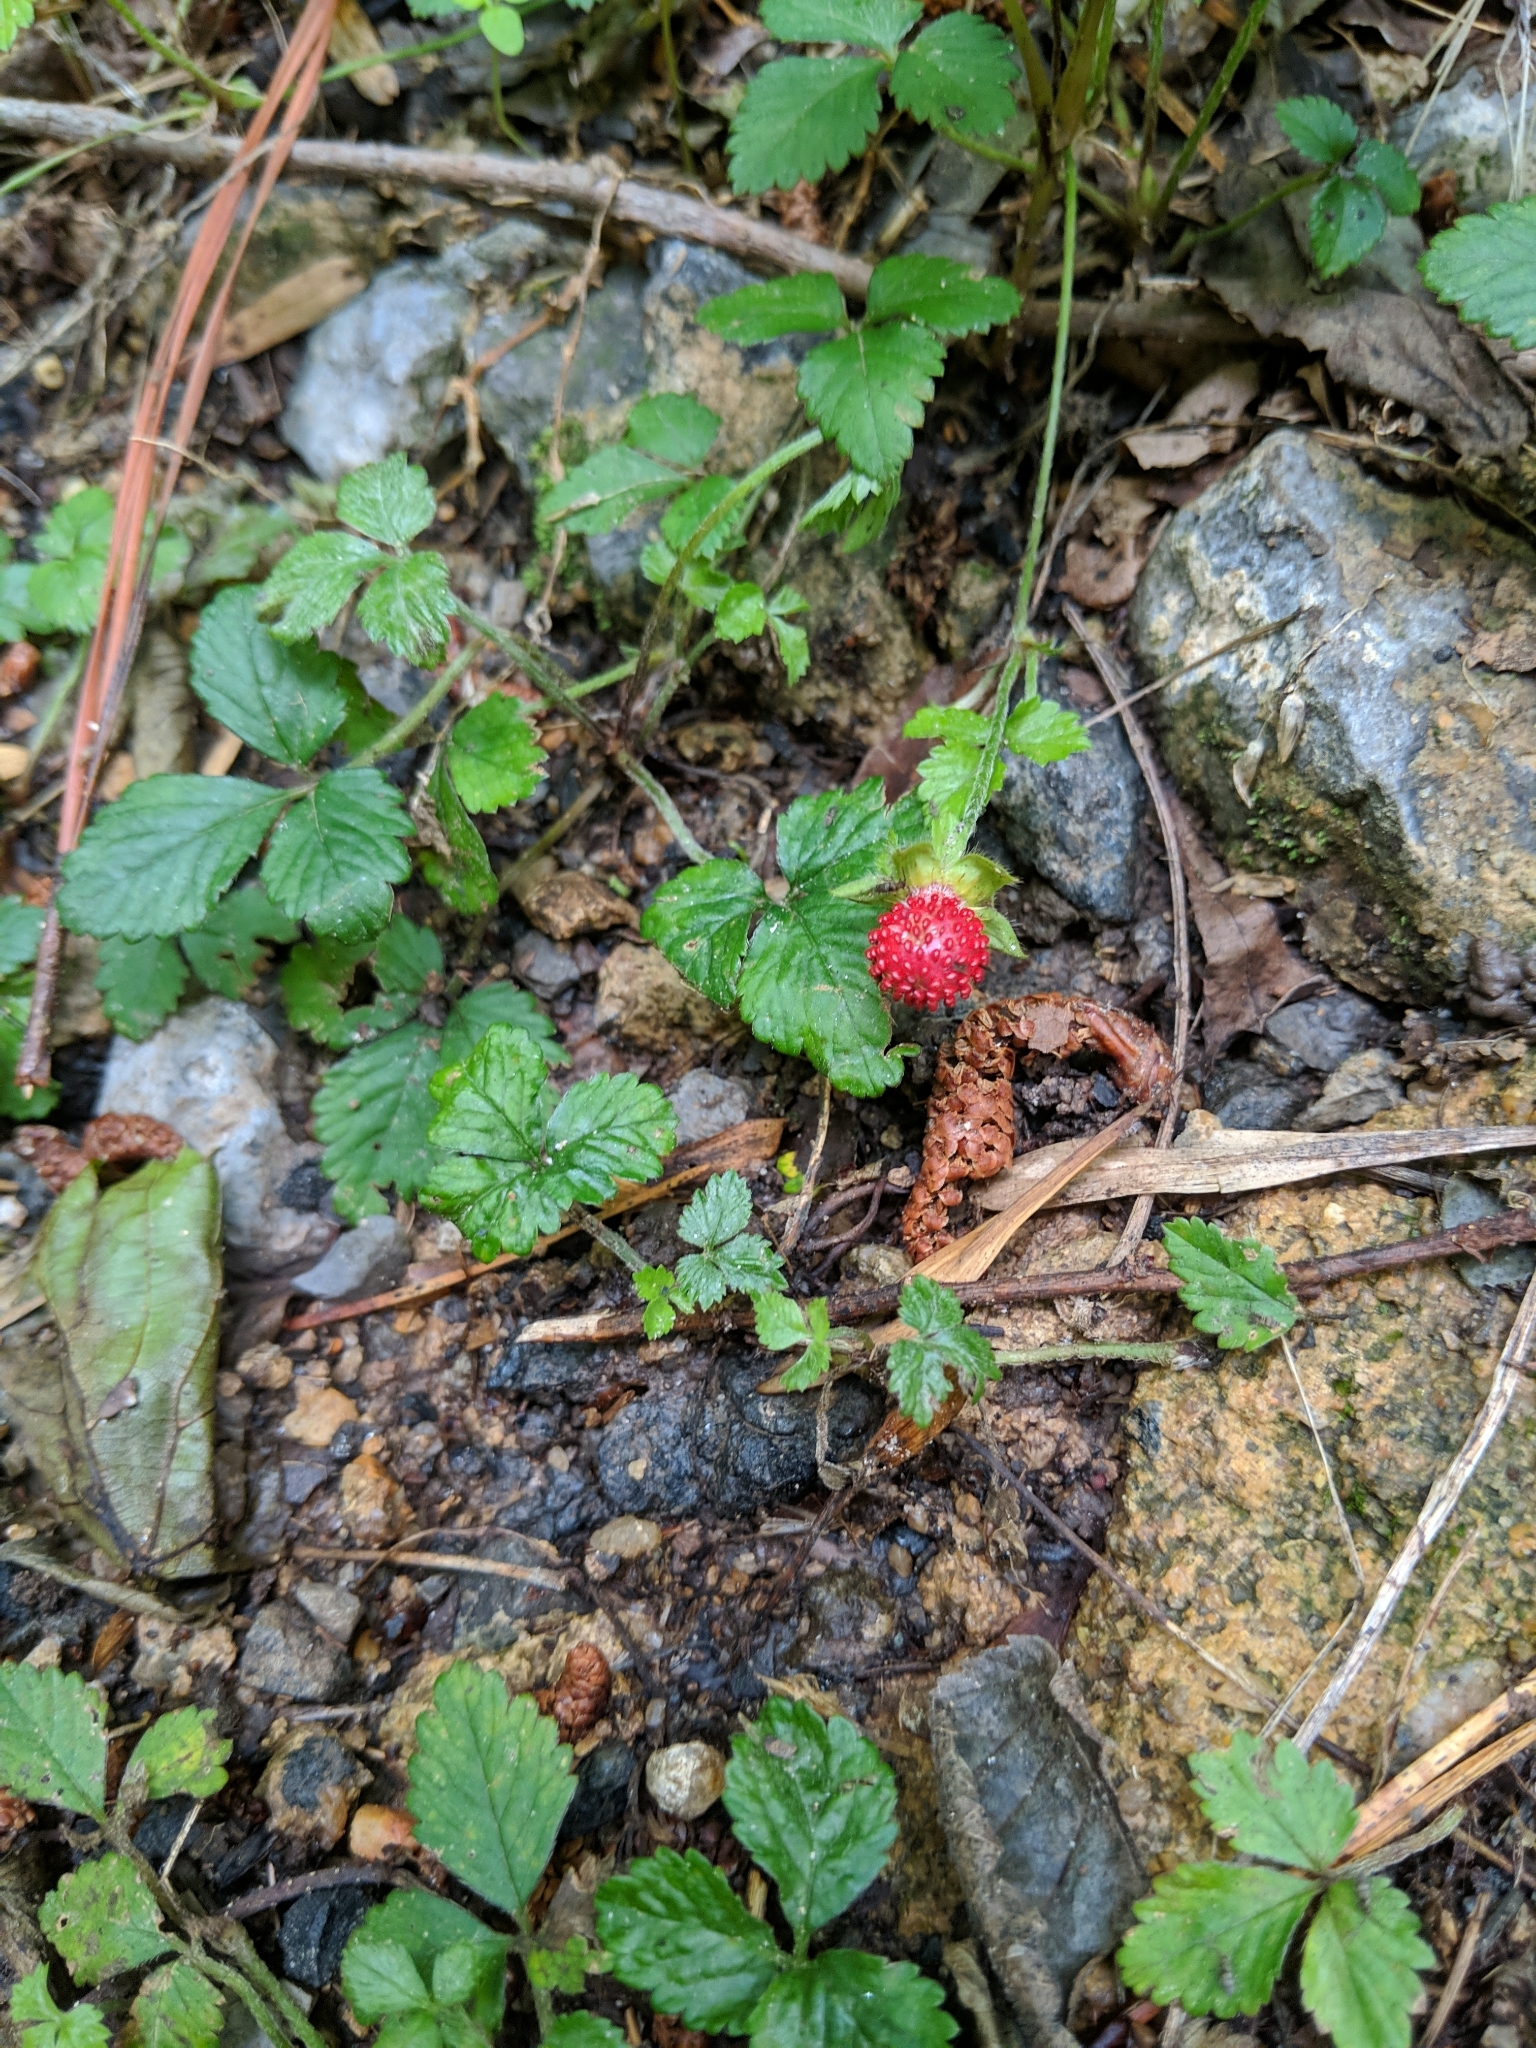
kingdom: Plantae
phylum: Tracheophyta
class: Magnoliopsida
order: Rosales
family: Rosaceae
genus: Potentilla
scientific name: Potentilla indica
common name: Yellow-flowered strawberry
